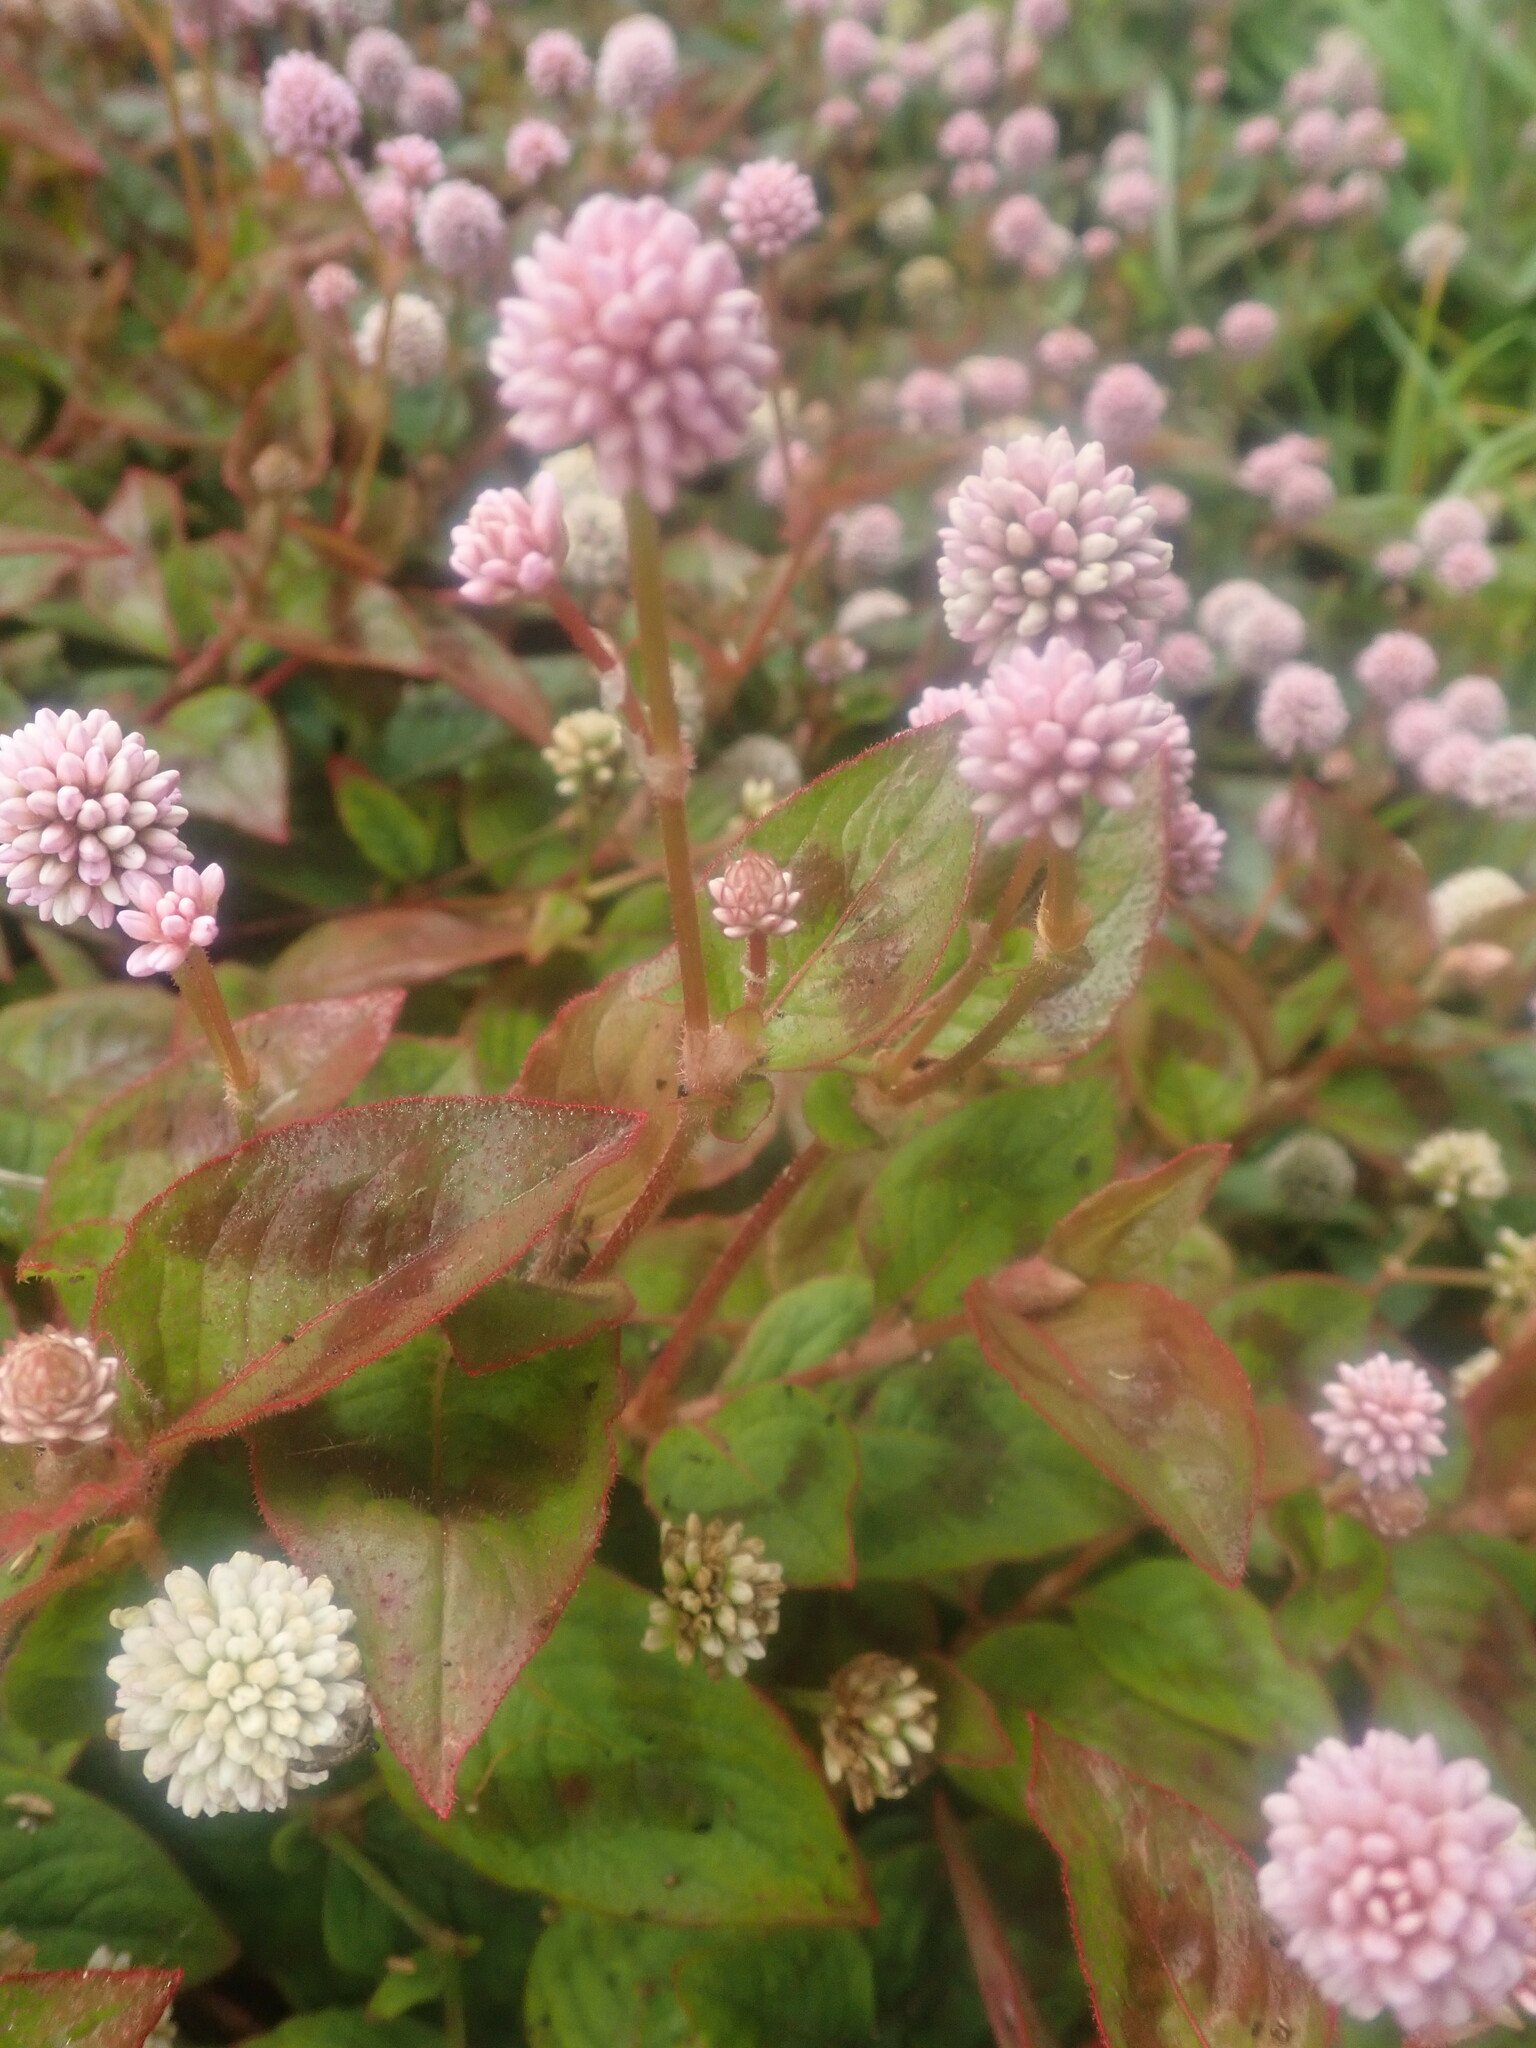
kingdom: Plantae
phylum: Tracheophyta
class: Magnoliopsida
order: Caryophyllales
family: Polygonaceae
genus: Persicaria
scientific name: Persicaria capitata
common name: Pinkhead smartweed
